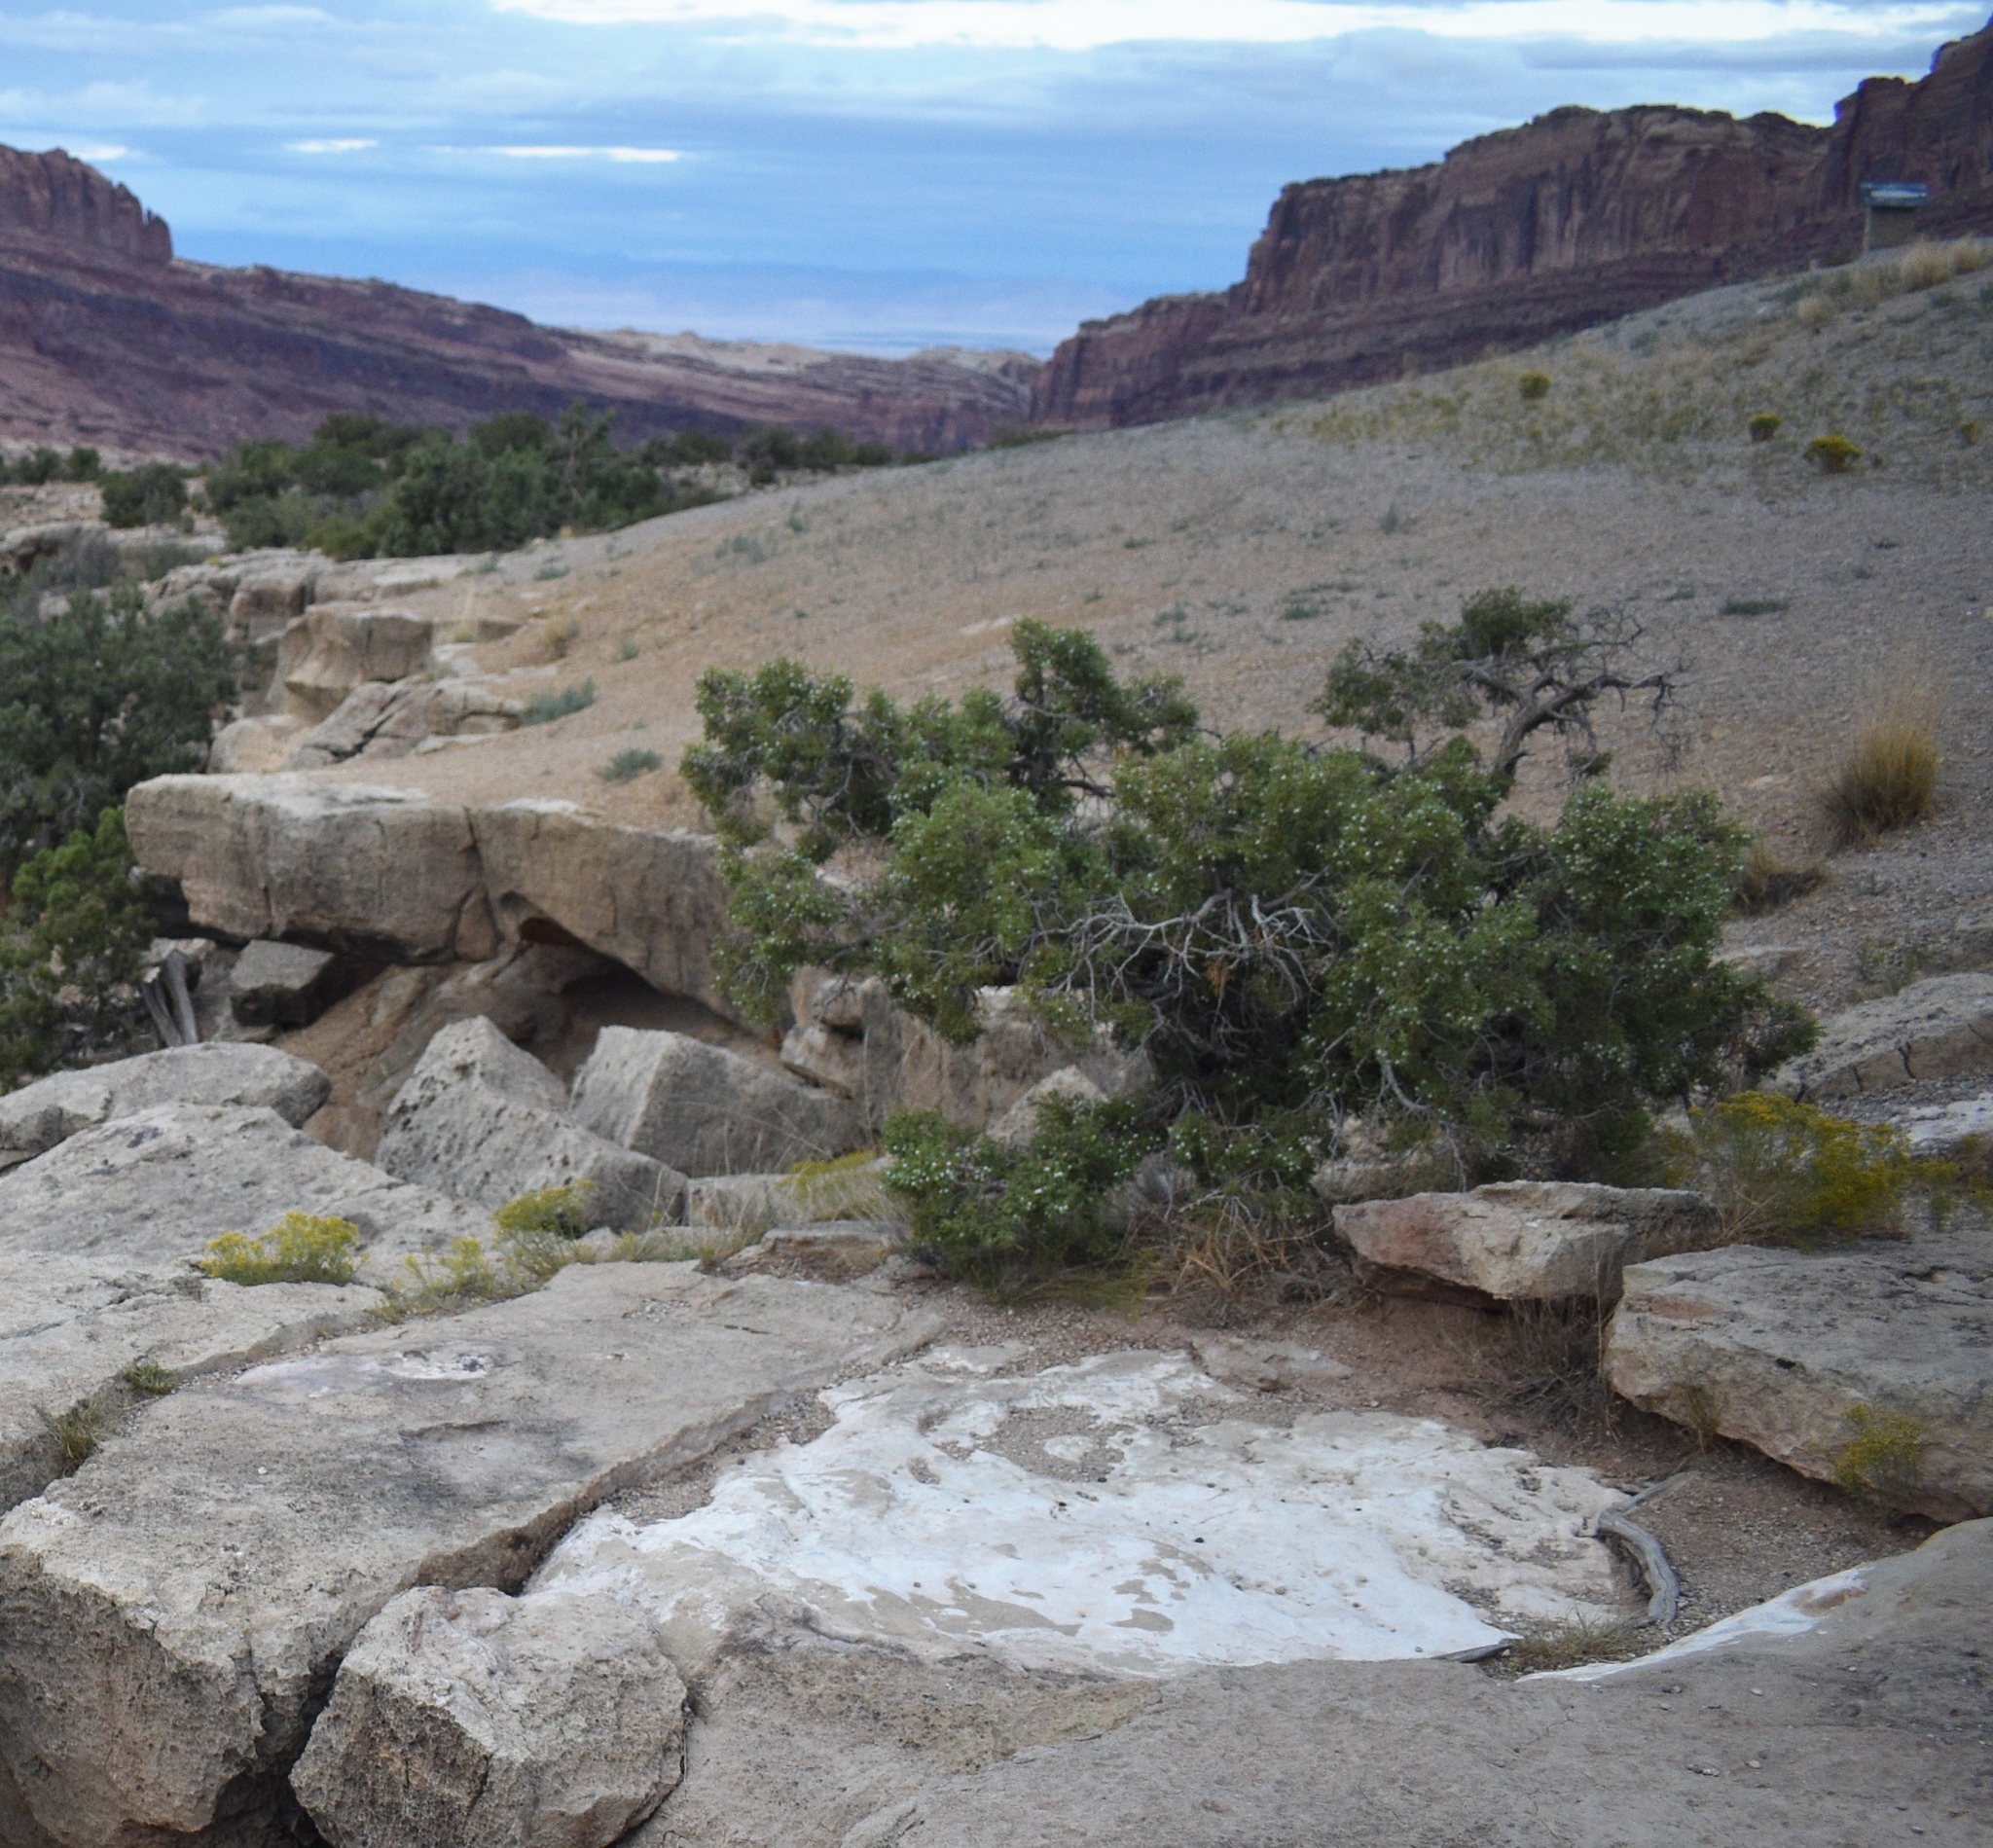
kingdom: Plantae
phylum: Tracheophyta
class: Pinopsida
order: Pinales
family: Cupressaceae
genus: Juniperus
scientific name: Juniperus osteosperma
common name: Utah juniper
